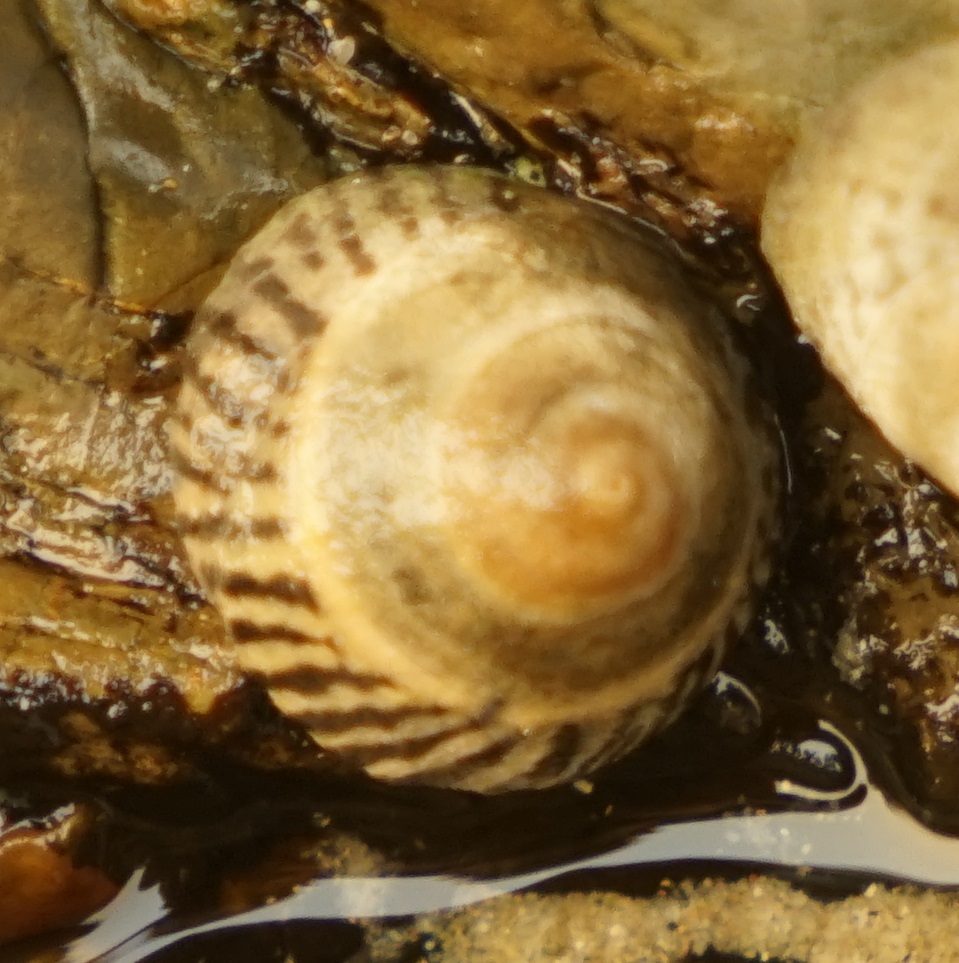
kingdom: Animalia
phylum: Mollusca
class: Gastropoda
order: Littorinimorpha
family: Littorinidae
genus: Bembicium
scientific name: Bembicium nanum
